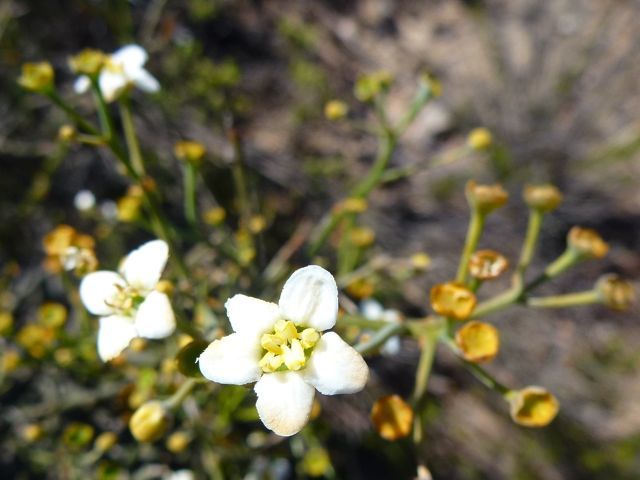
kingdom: Plantae
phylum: Tracheophyta
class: Magnoliopsida
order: Solanales
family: Montiniaceae
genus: Montinia
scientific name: Montinia caryophyllacea
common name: Wild clove-bush
